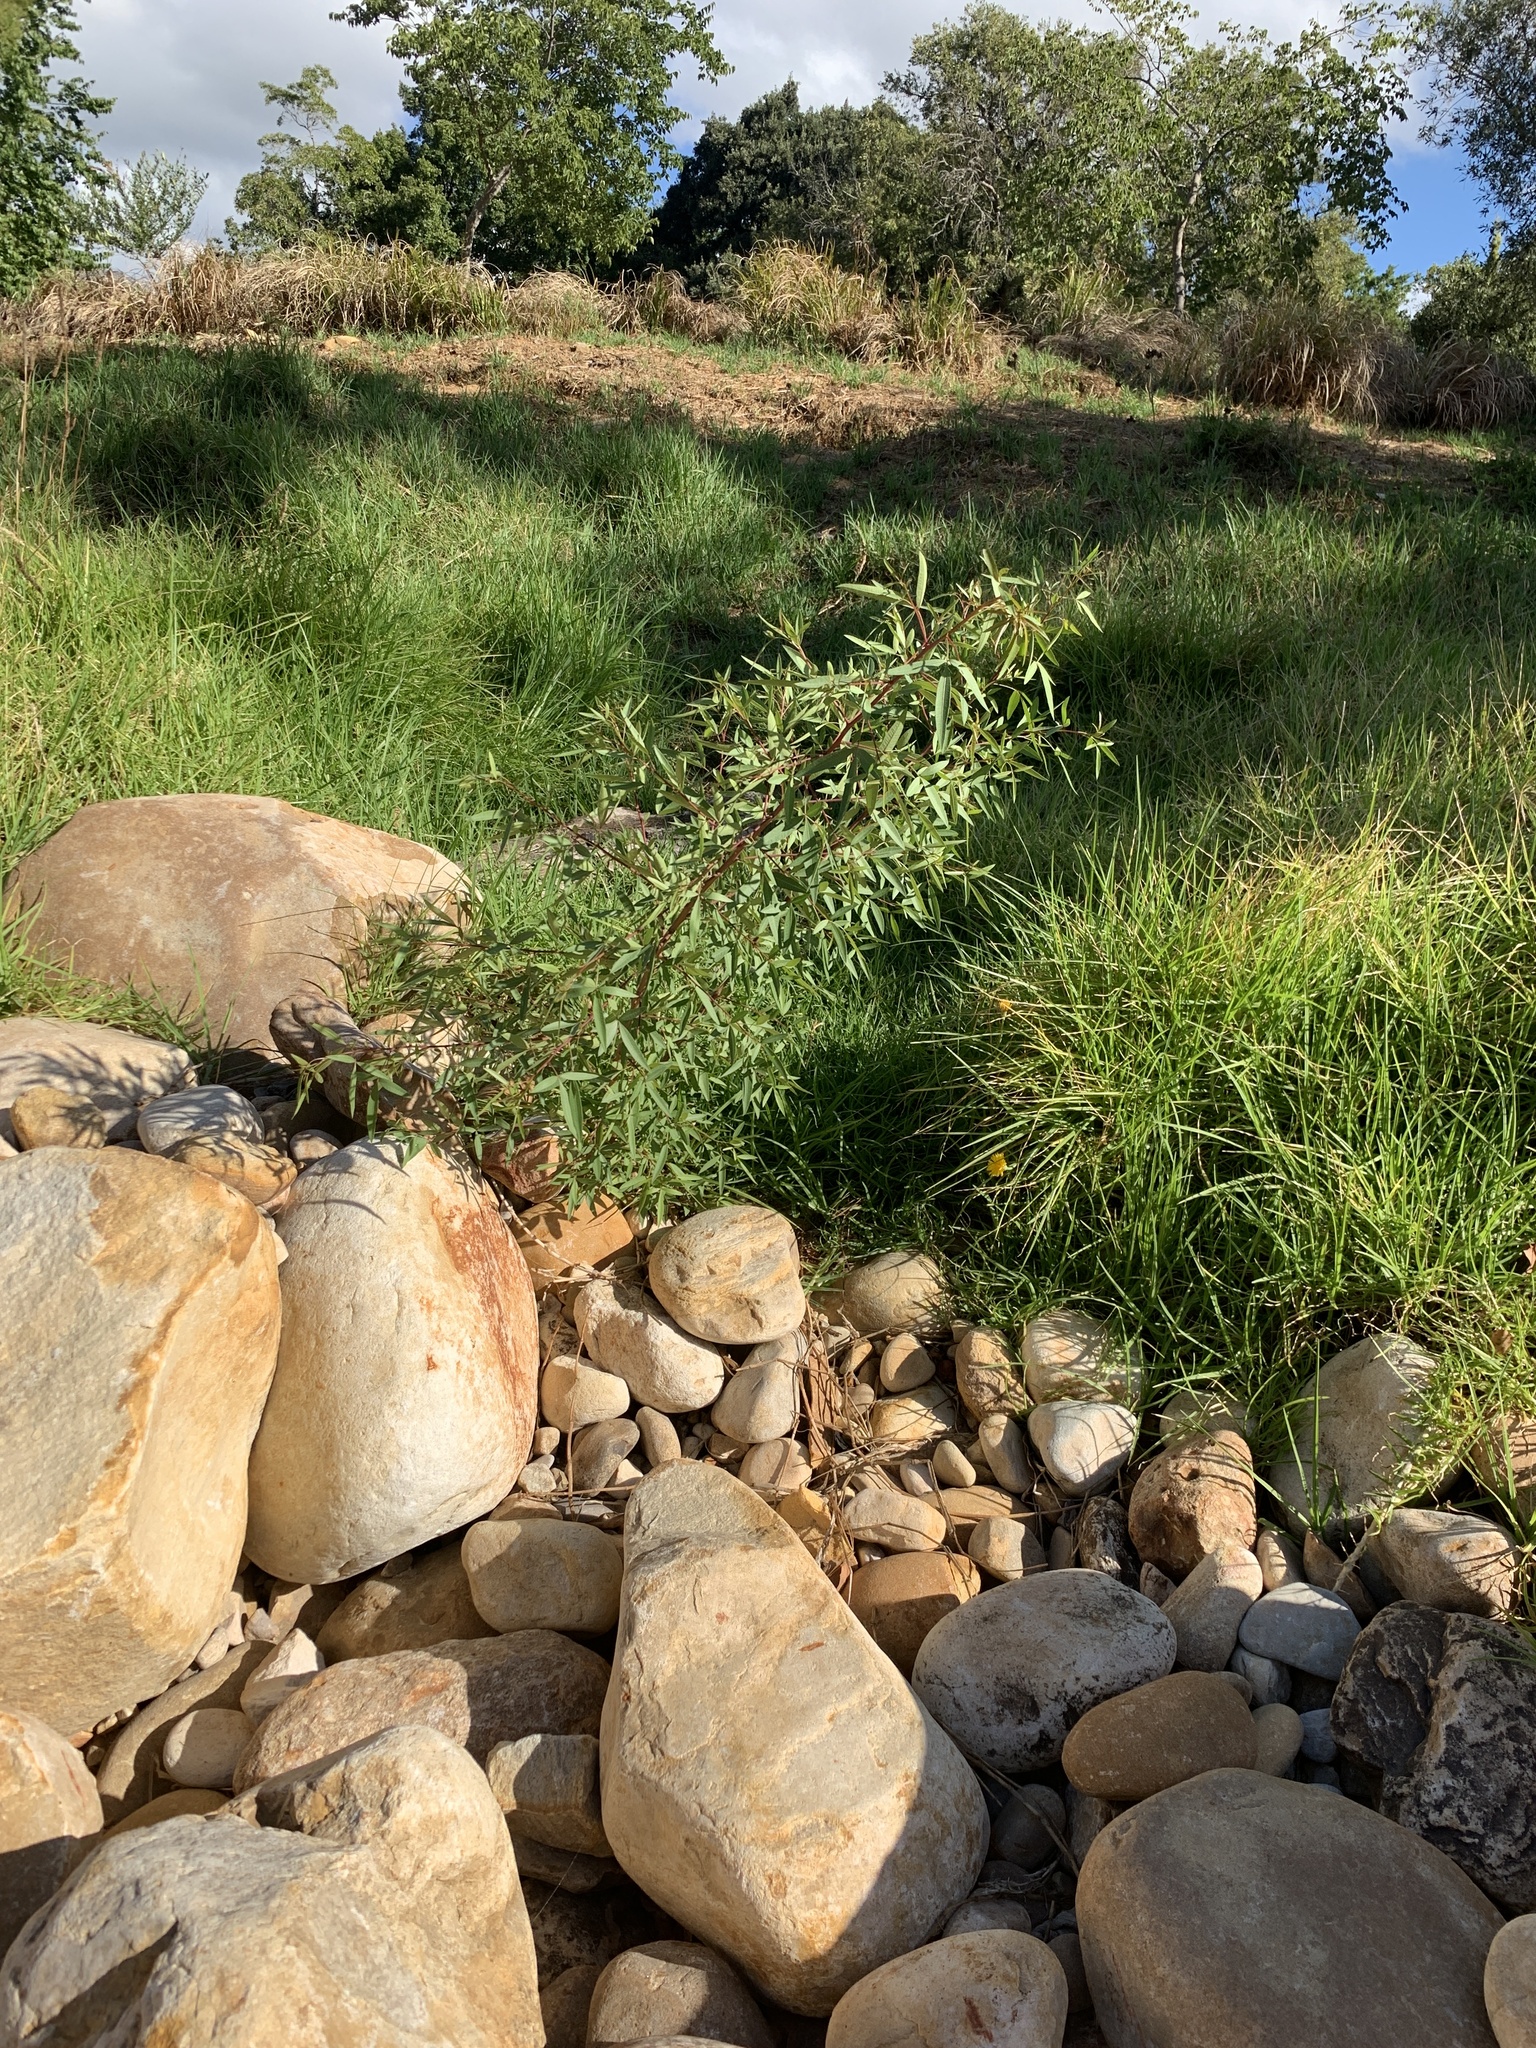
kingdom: Plantae
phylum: Tracheophyta
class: Magnoliopsida
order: Sapindales
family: Anacardiaceae
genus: Searsia
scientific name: Searsia pendulina
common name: White karee
